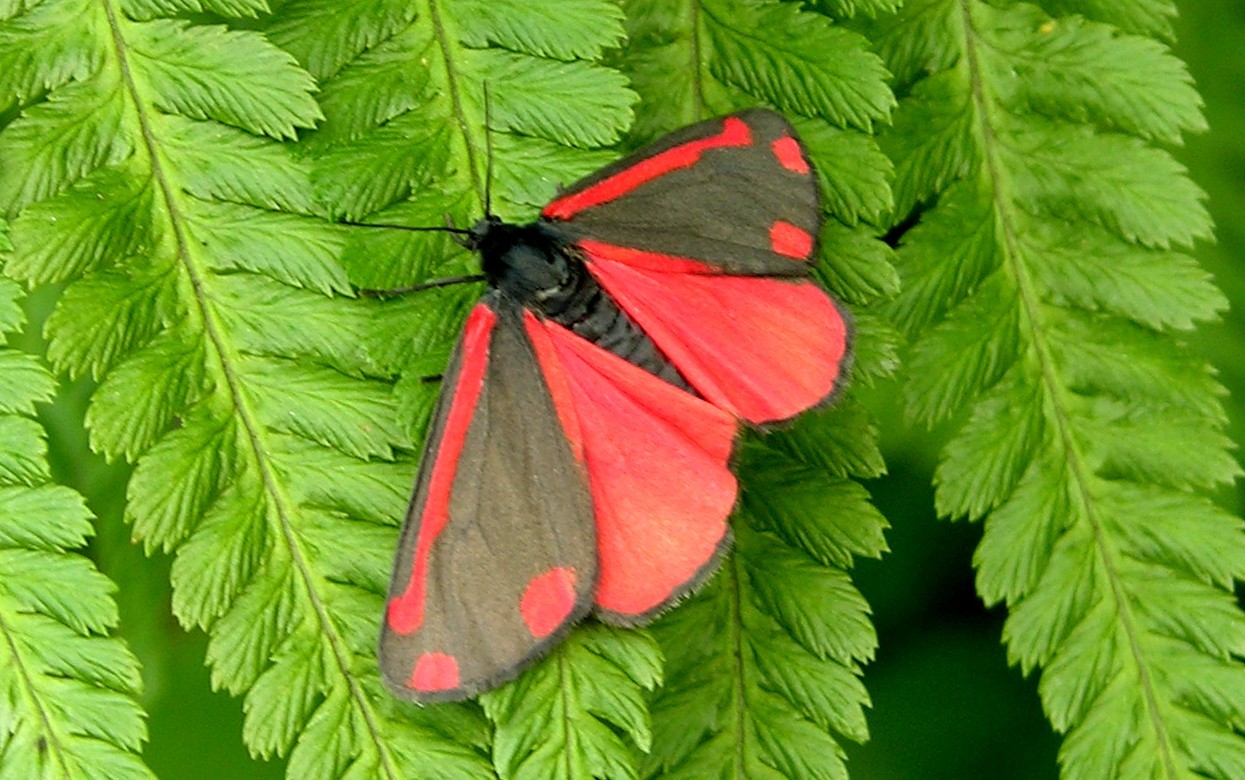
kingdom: Animalia
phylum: Arthropoda
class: Insecta
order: Lepidoptera
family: Erebidae
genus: Tyria
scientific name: Tyria jacobaeae
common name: Cinnabar
